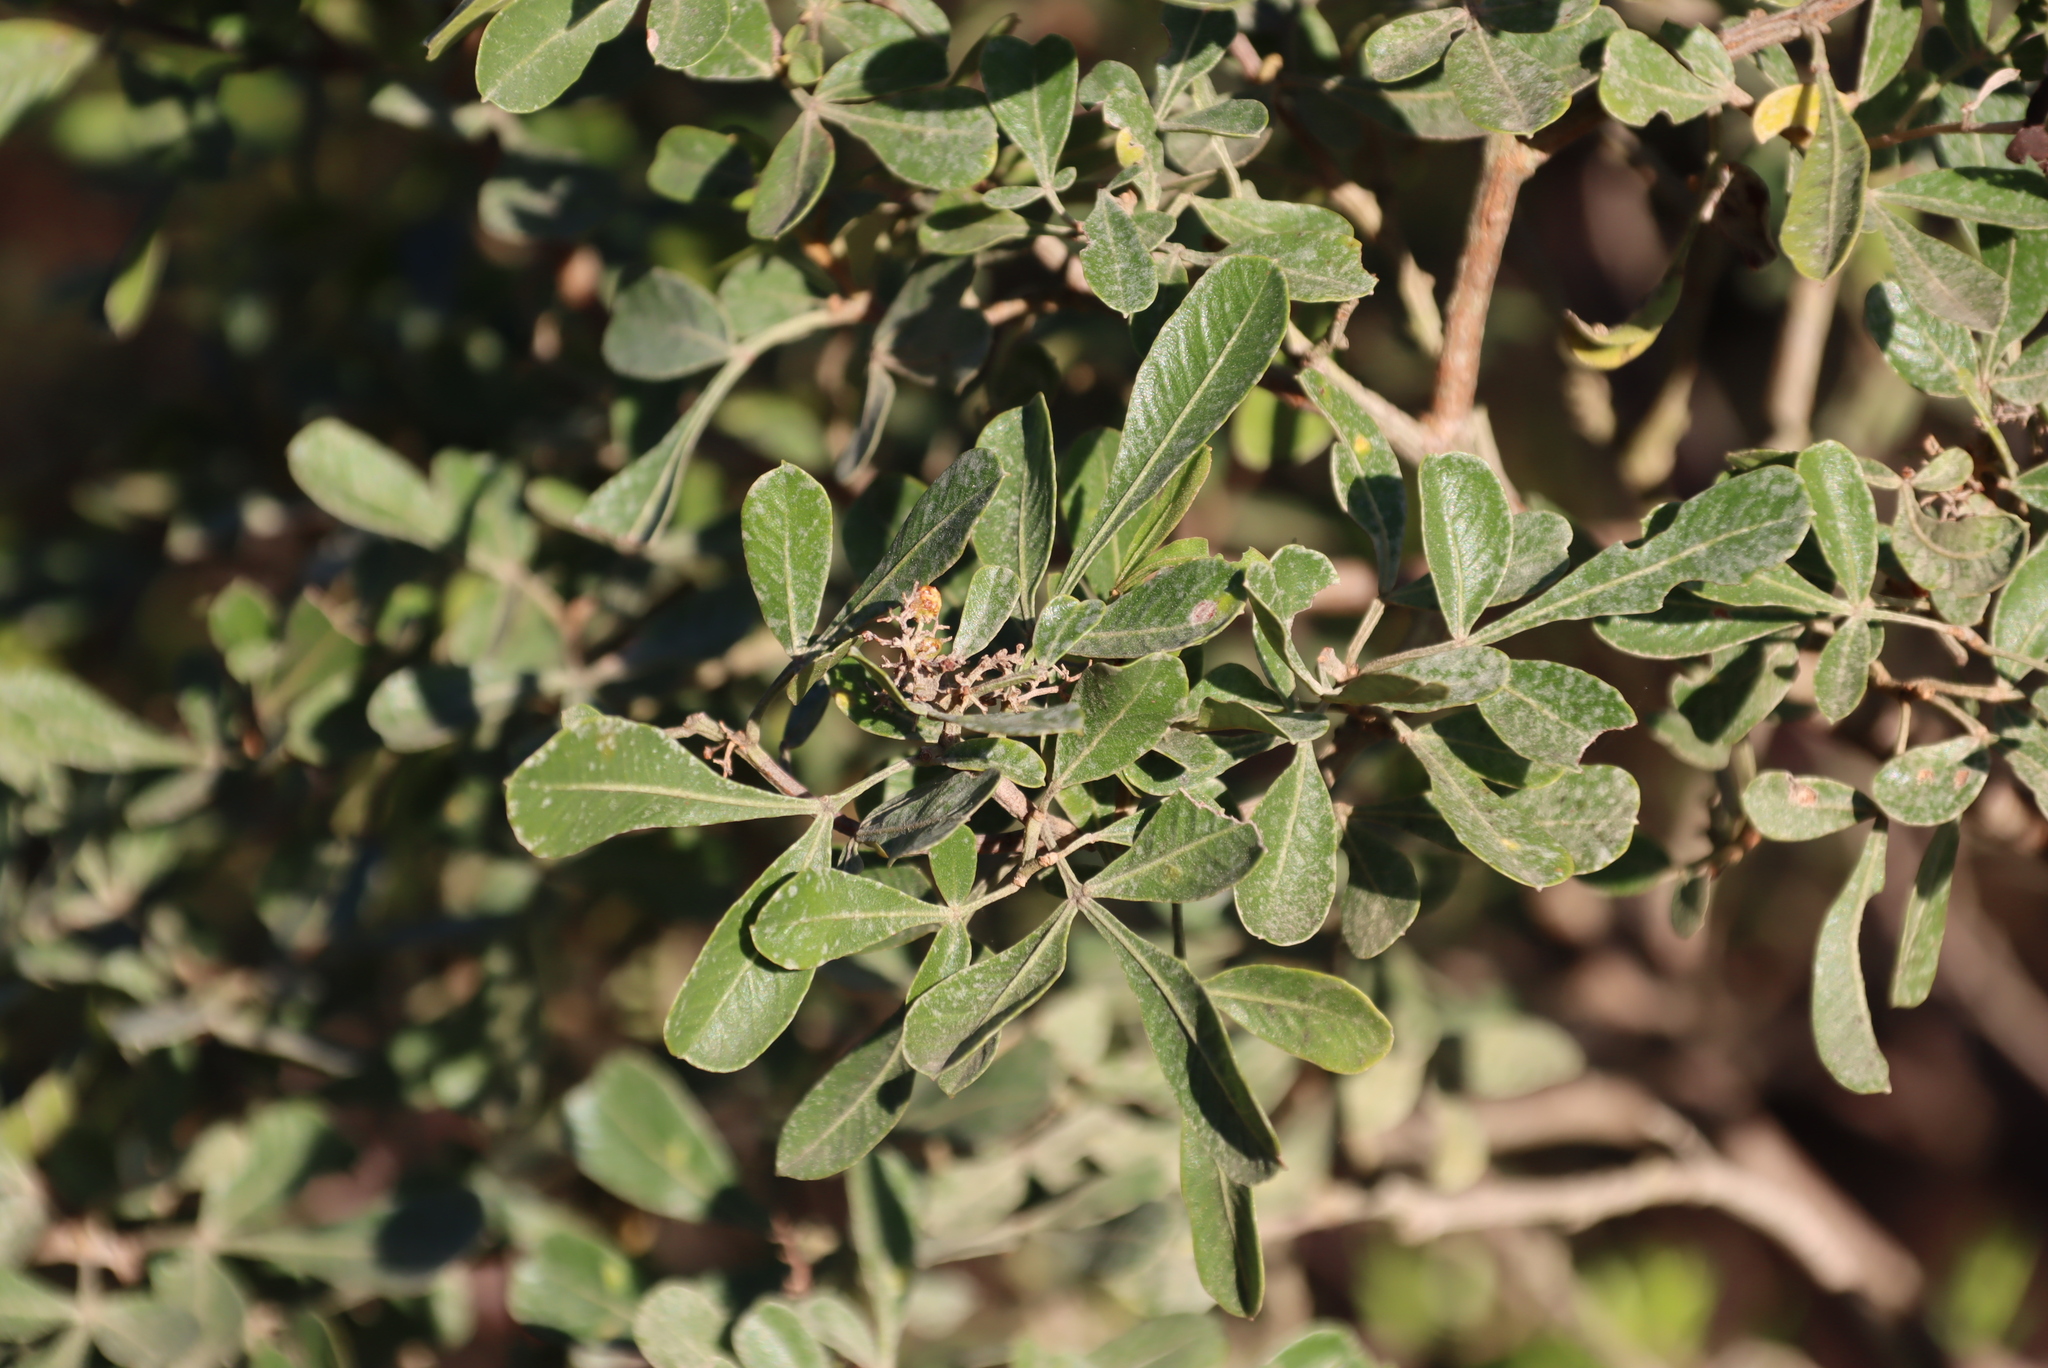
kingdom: Plantae
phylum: Tracheophyta
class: Magnoliopsida
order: Sapindales
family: Anacardiaceae
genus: Searsia
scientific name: Searsia pallens
